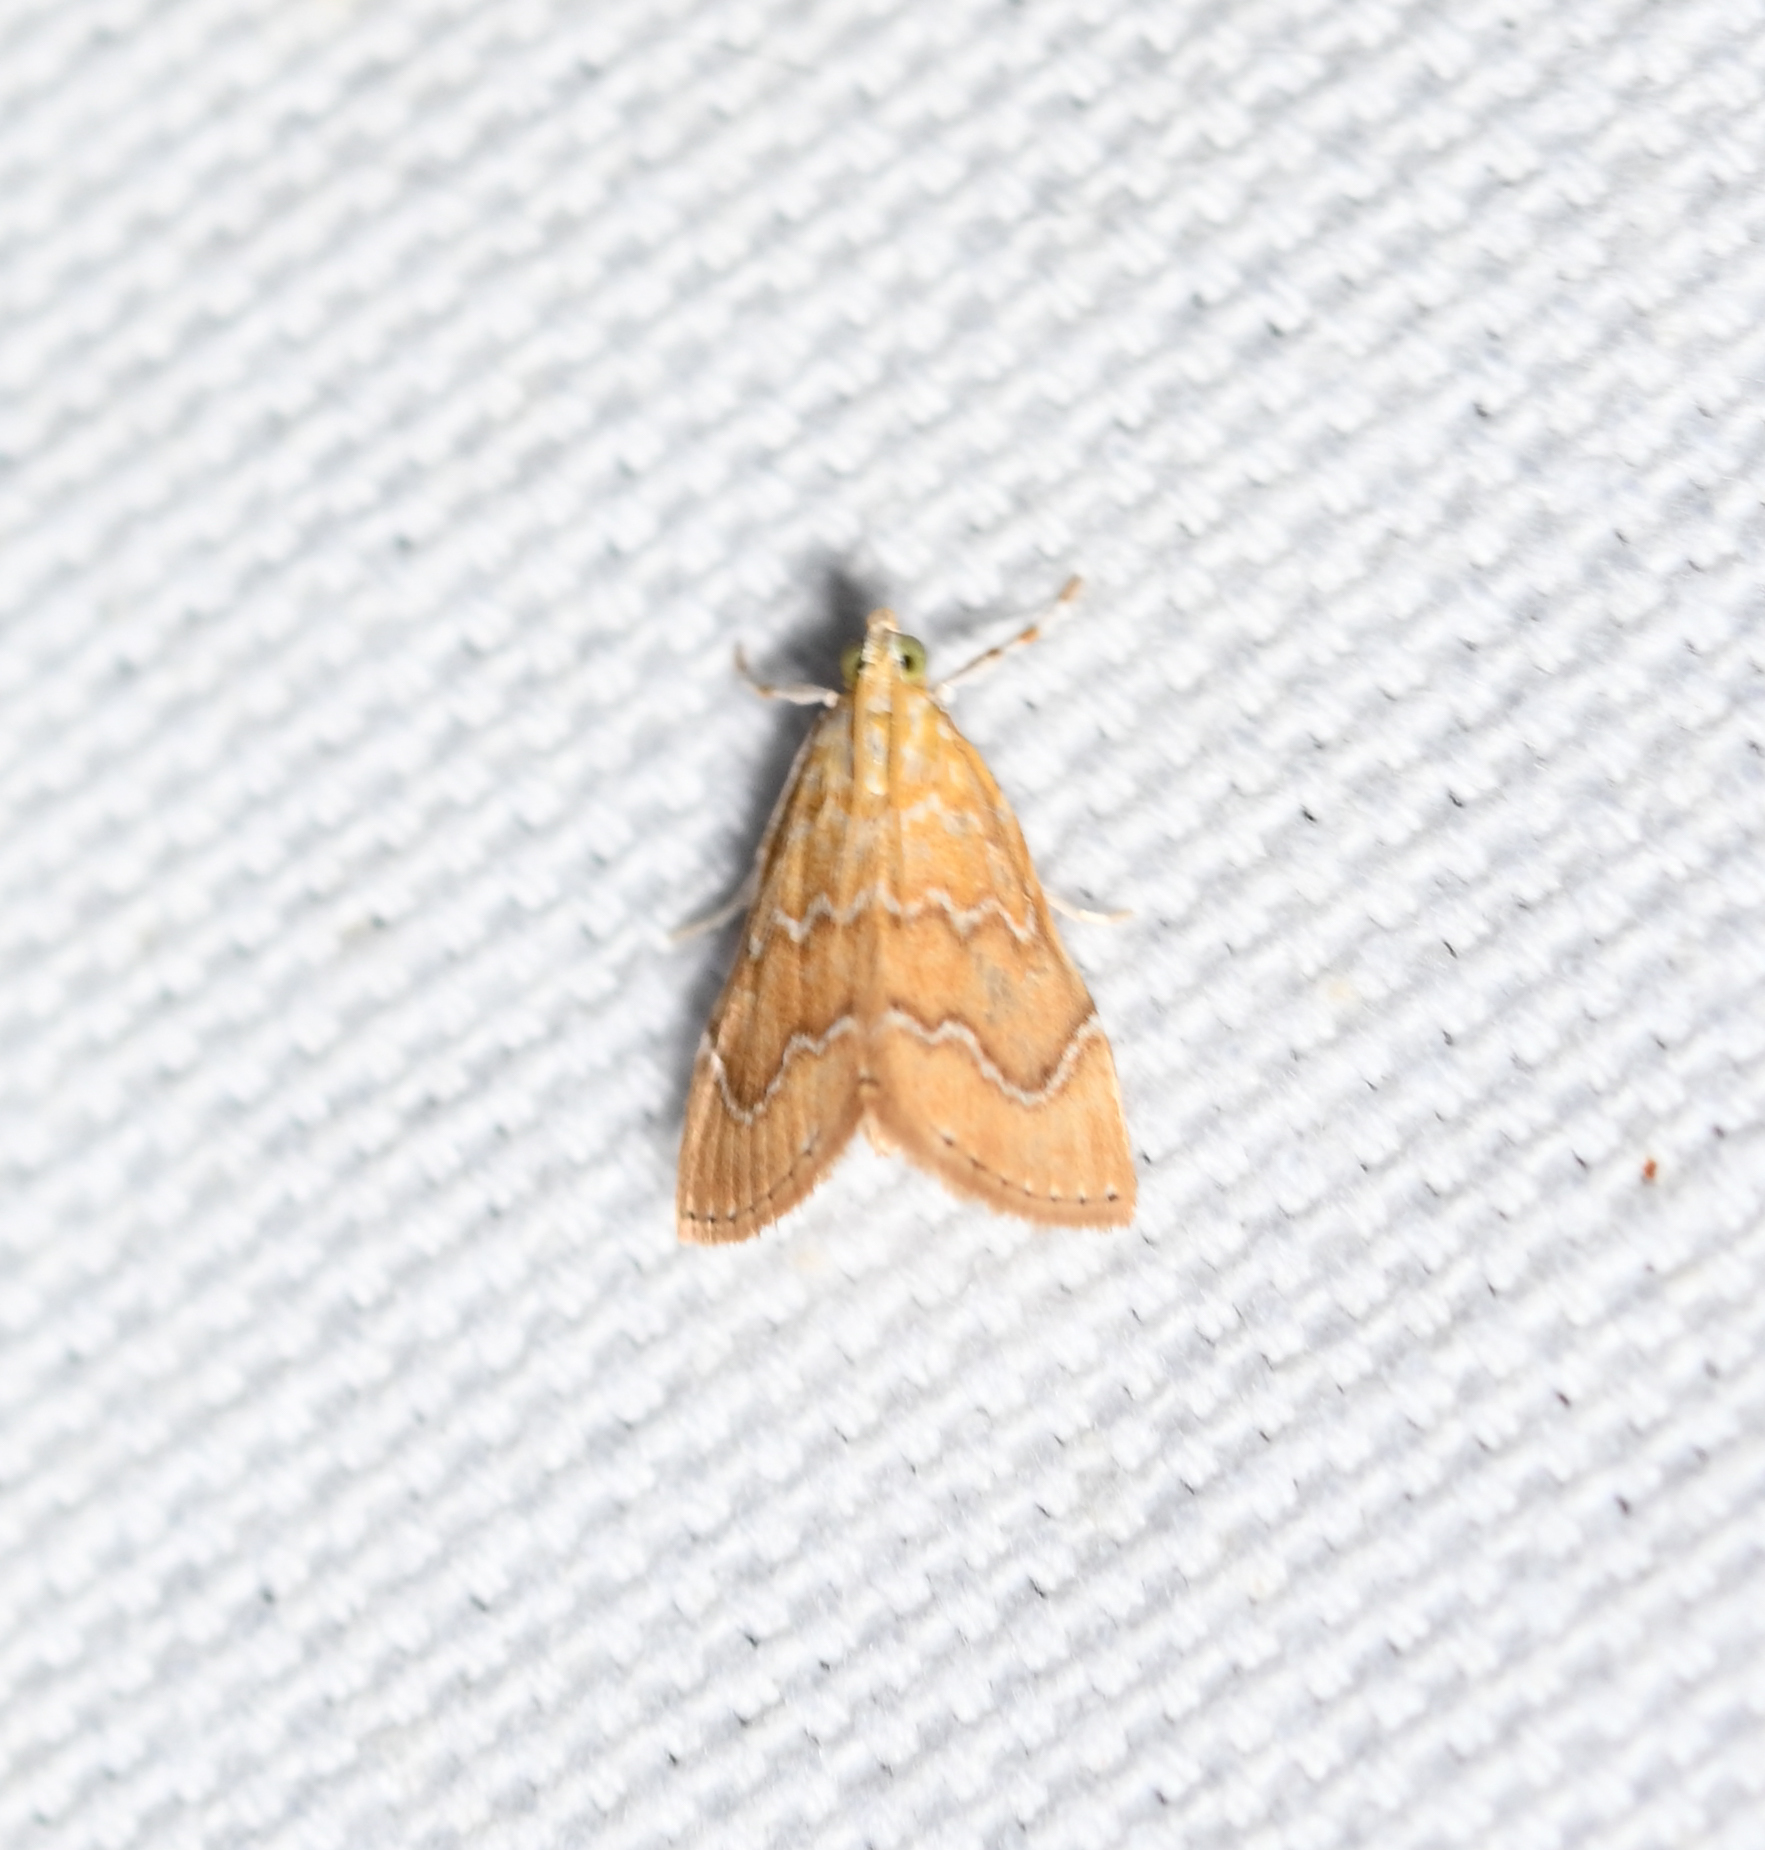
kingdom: Animalia
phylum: Arthropoda
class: Insecta
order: Lepidoptera
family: Crambidae
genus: Glaphyria
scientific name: Glaphyria sesquistrialis
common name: White-roped glaphyria
